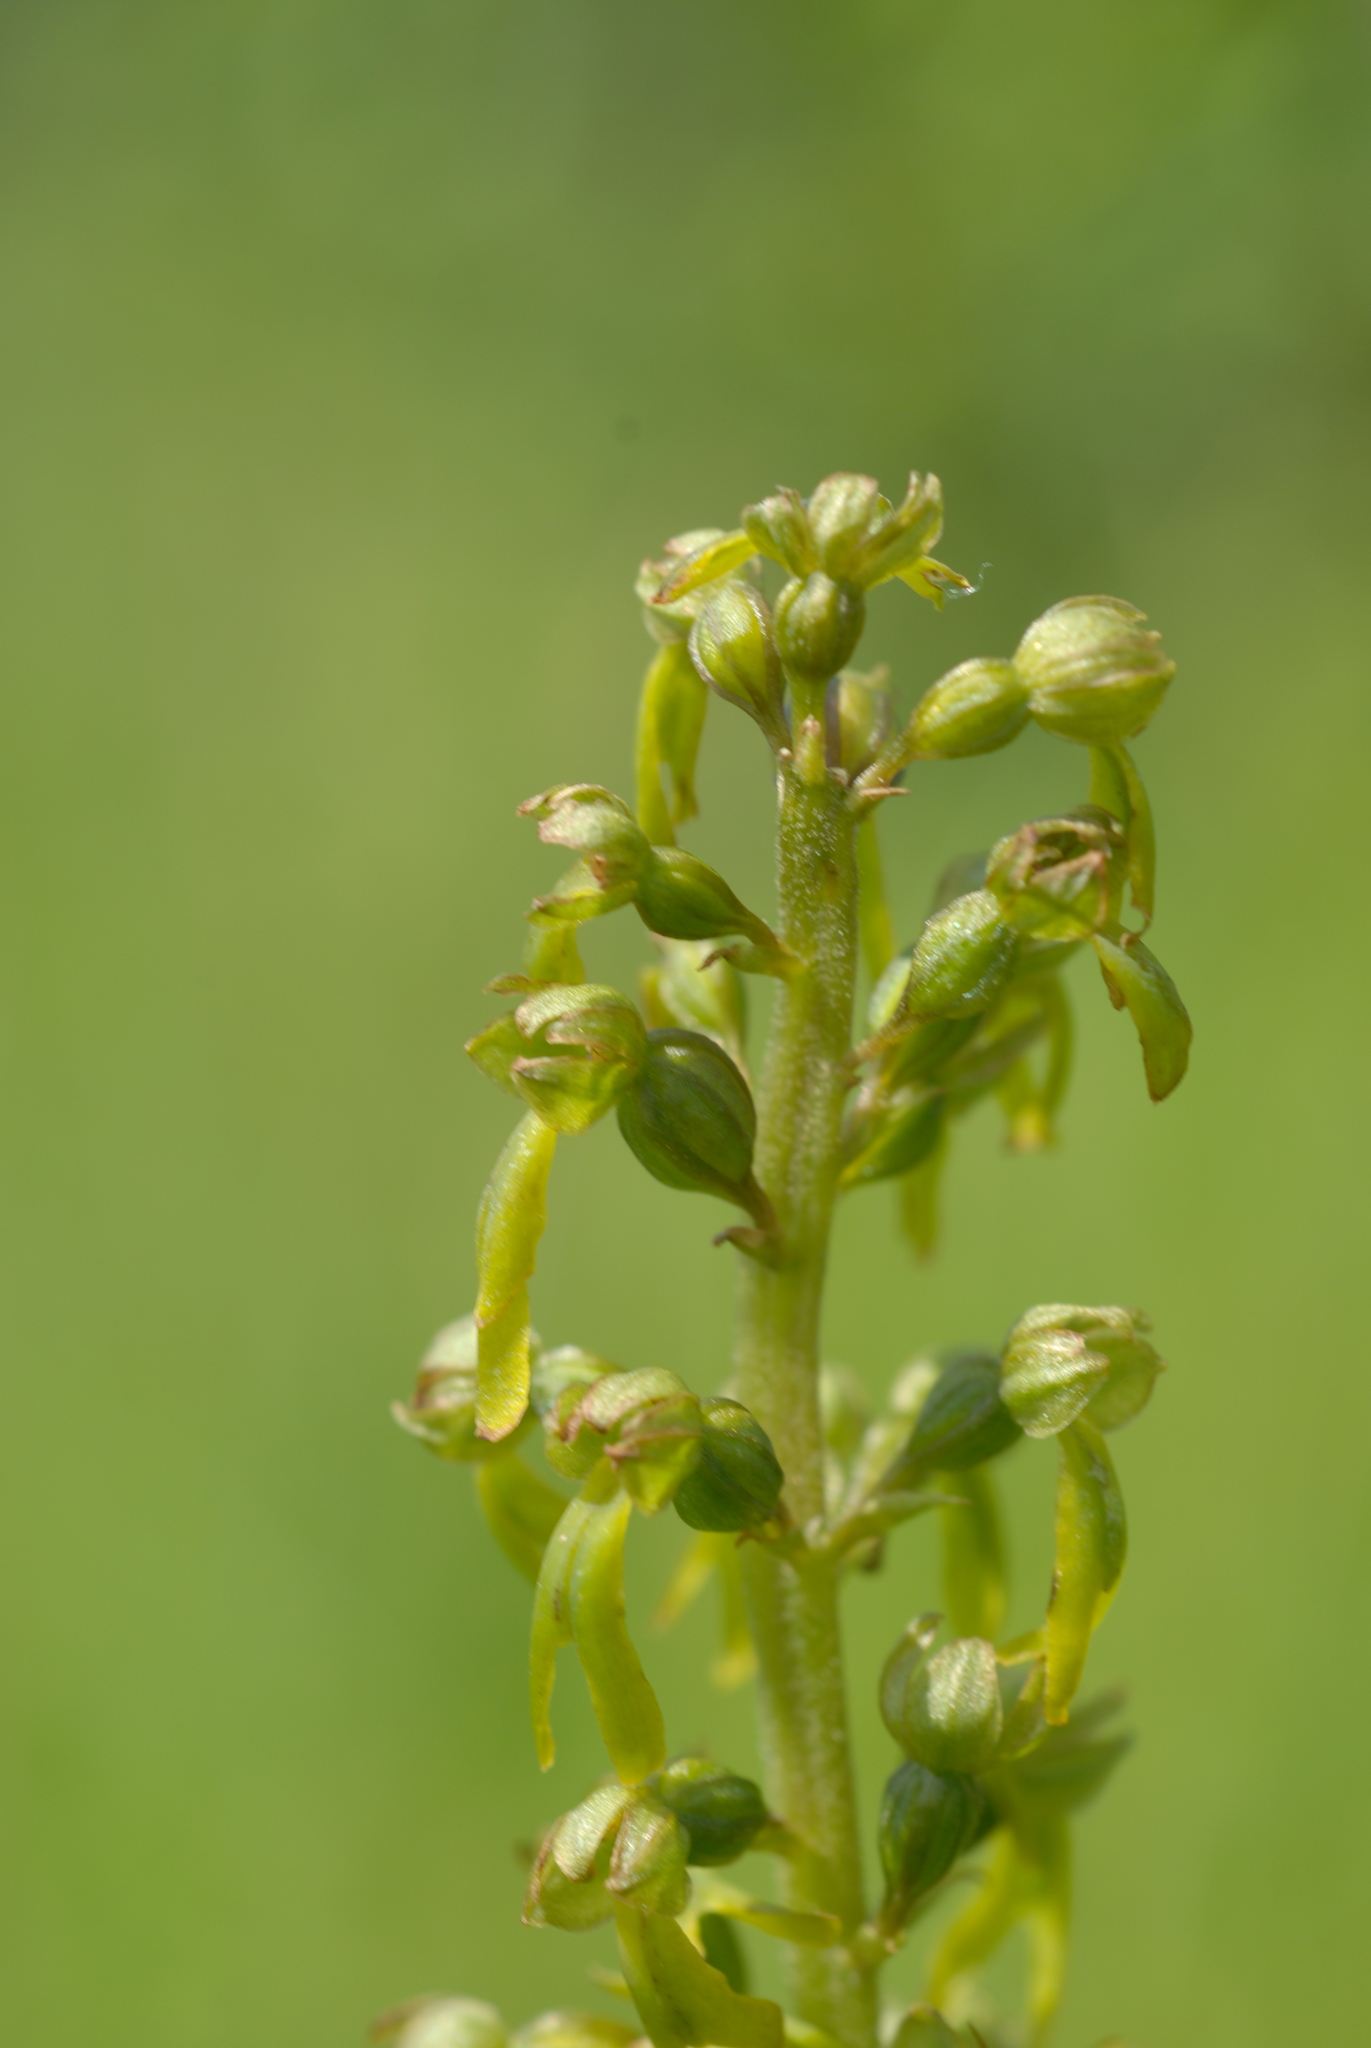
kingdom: Plantae
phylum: Tracheophyta
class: Liliopsida
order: Asparagales
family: Orchidaceae
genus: Neottia
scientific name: Neottia ovata
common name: Common twayblade
